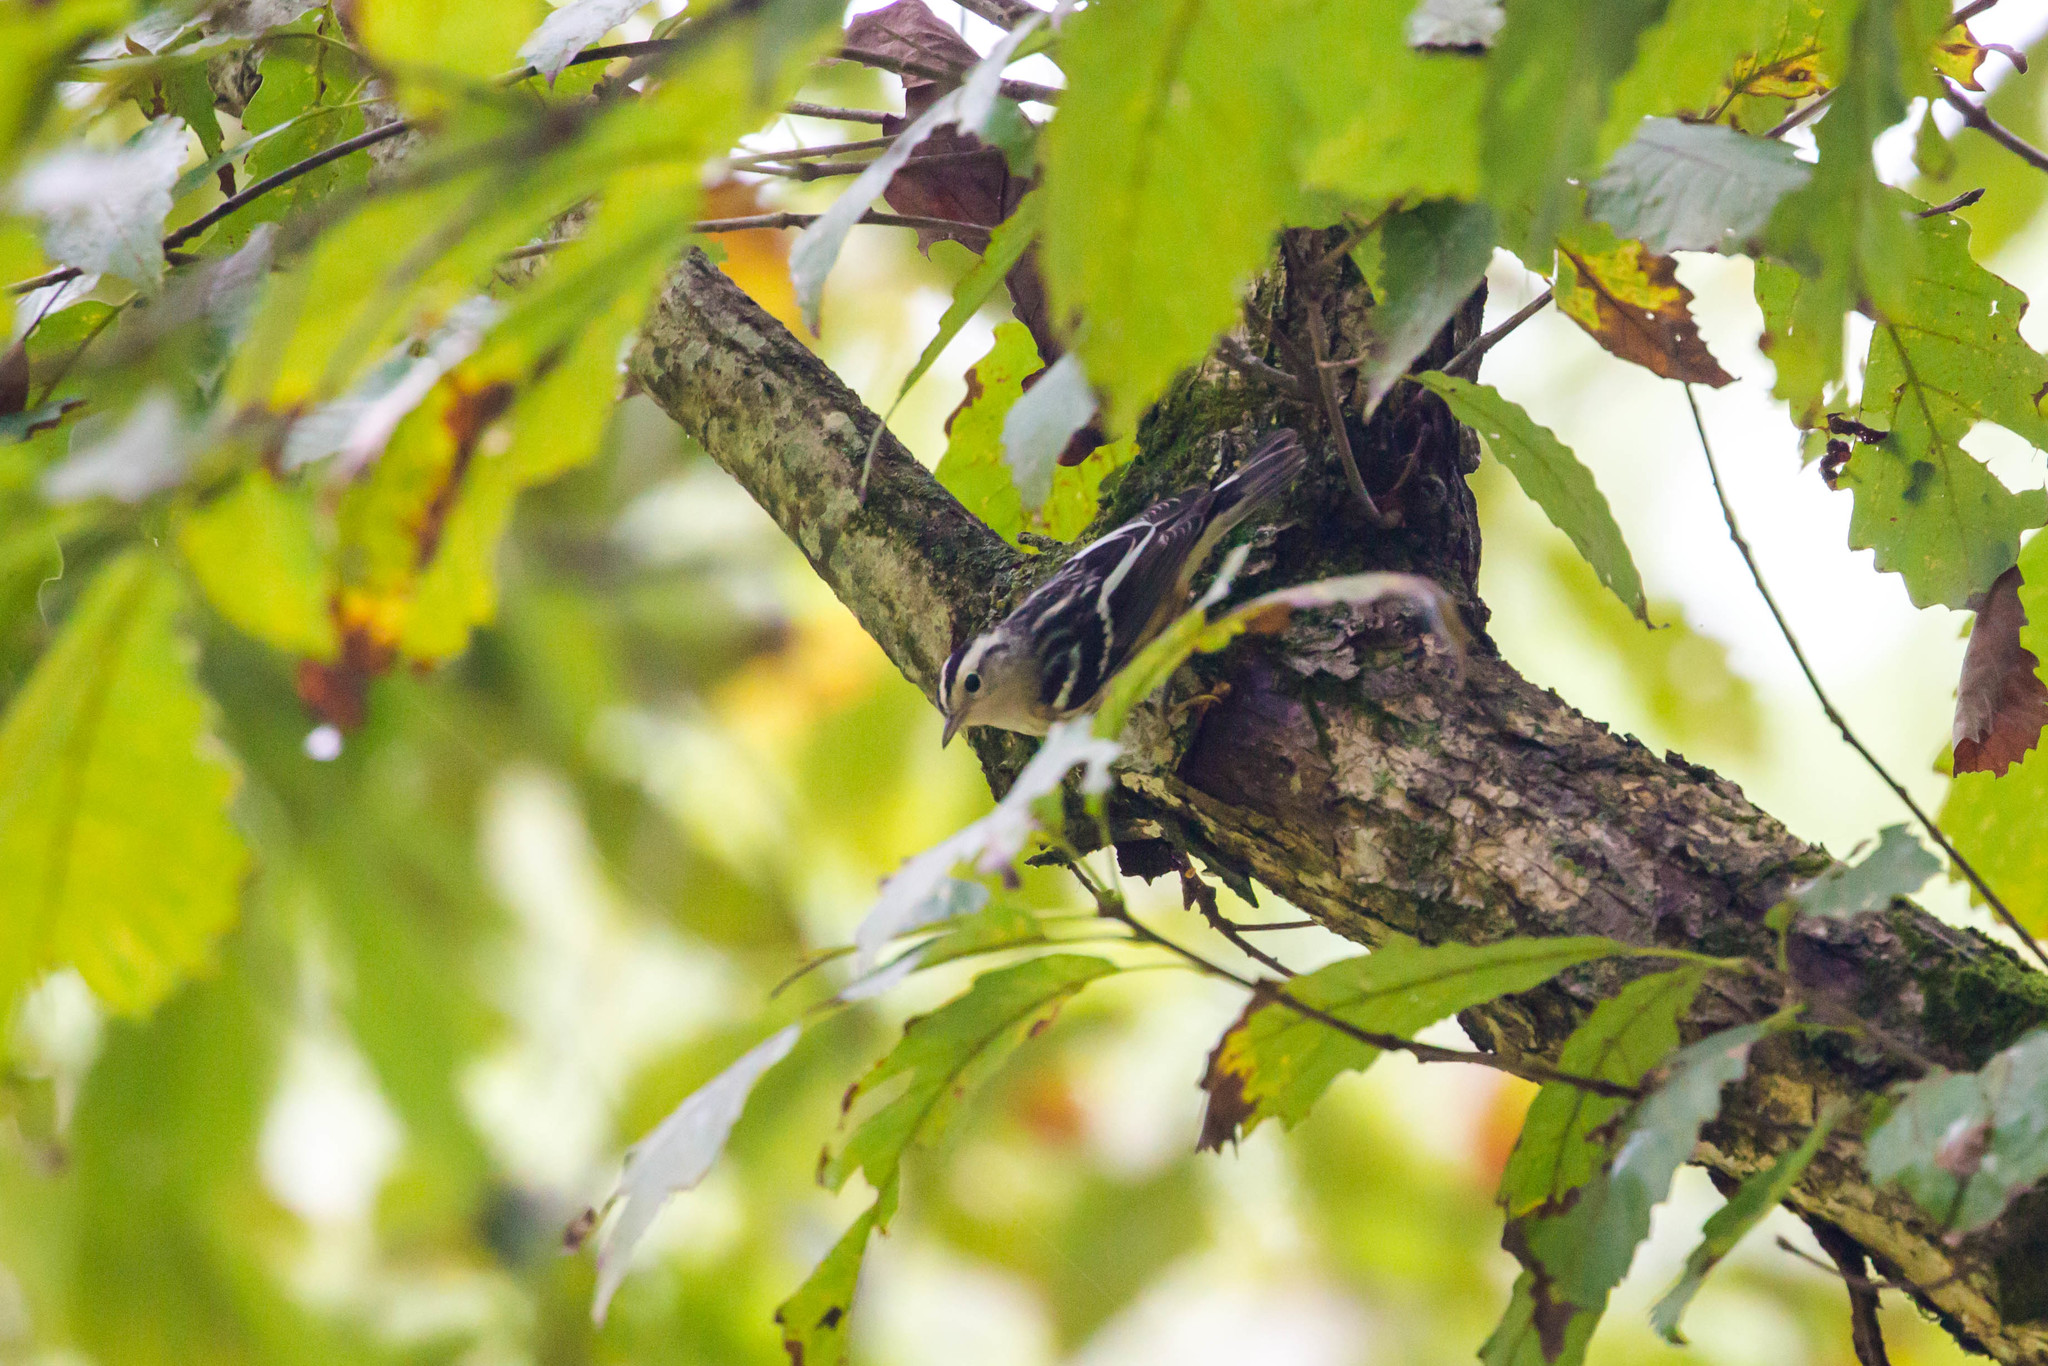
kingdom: Animalia
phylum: Chordata
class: Aves
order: Passeriformes
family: Parulidae
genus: Mniotilta
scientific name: Mniotilta varia
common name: Black-and-white warbler
